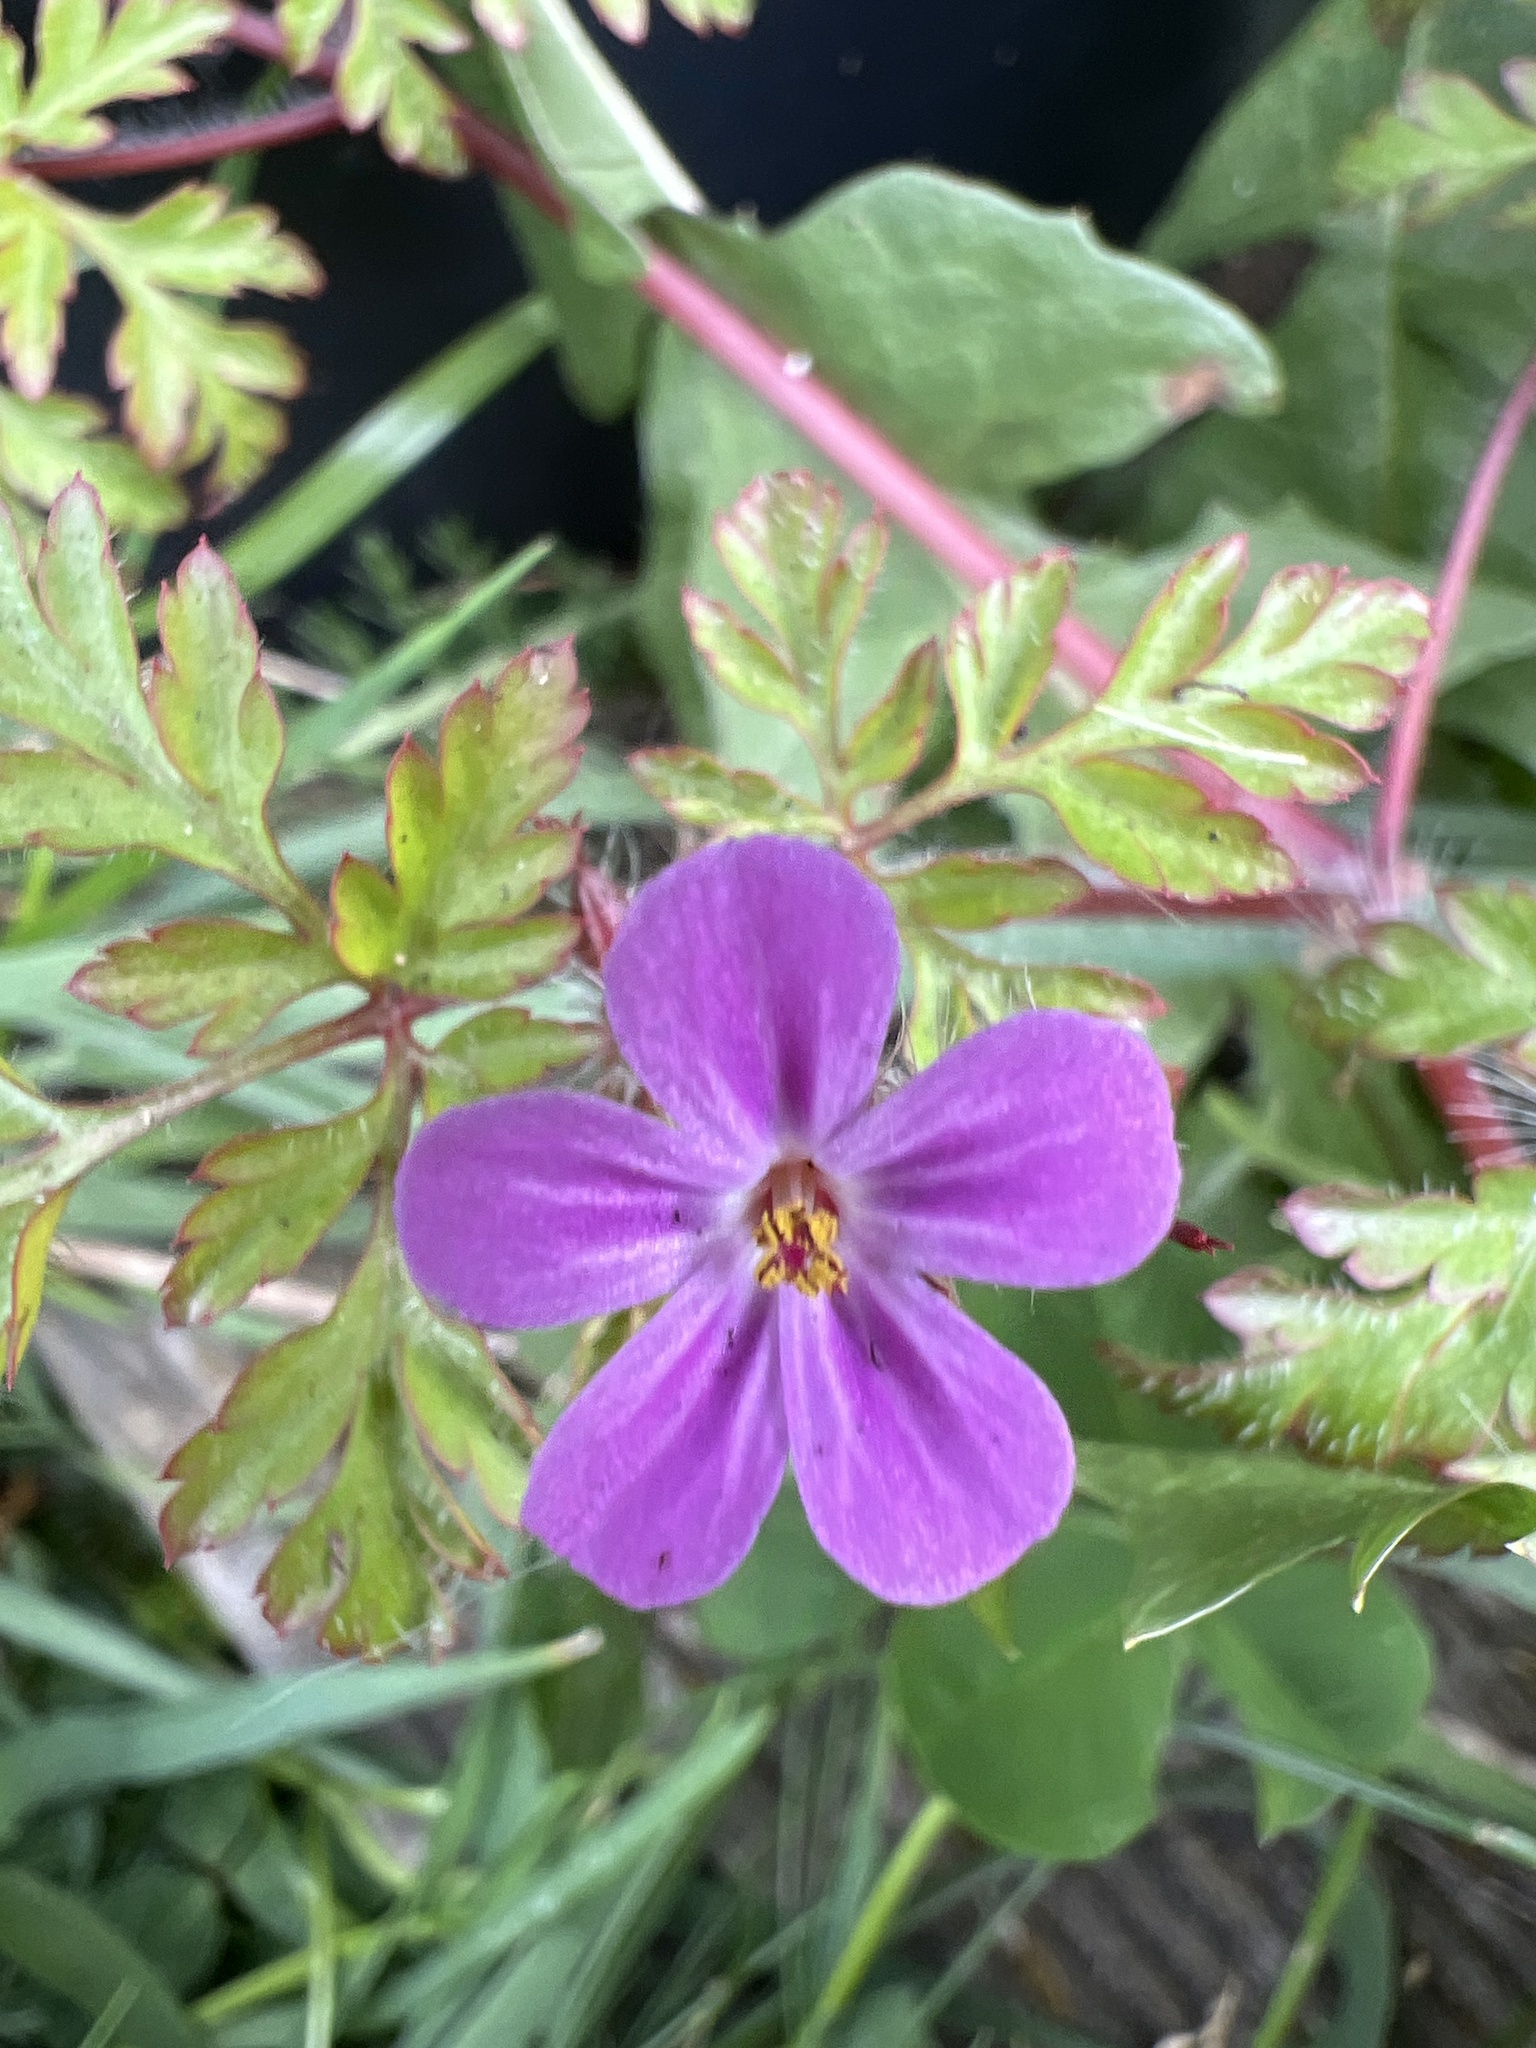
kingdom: Plantae
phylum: Tracheophyta
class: Magnoliopsida
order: Geraniales
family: Geraniaceae
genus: Geranium
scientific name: Geranium robertianum
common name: Herb-robert
